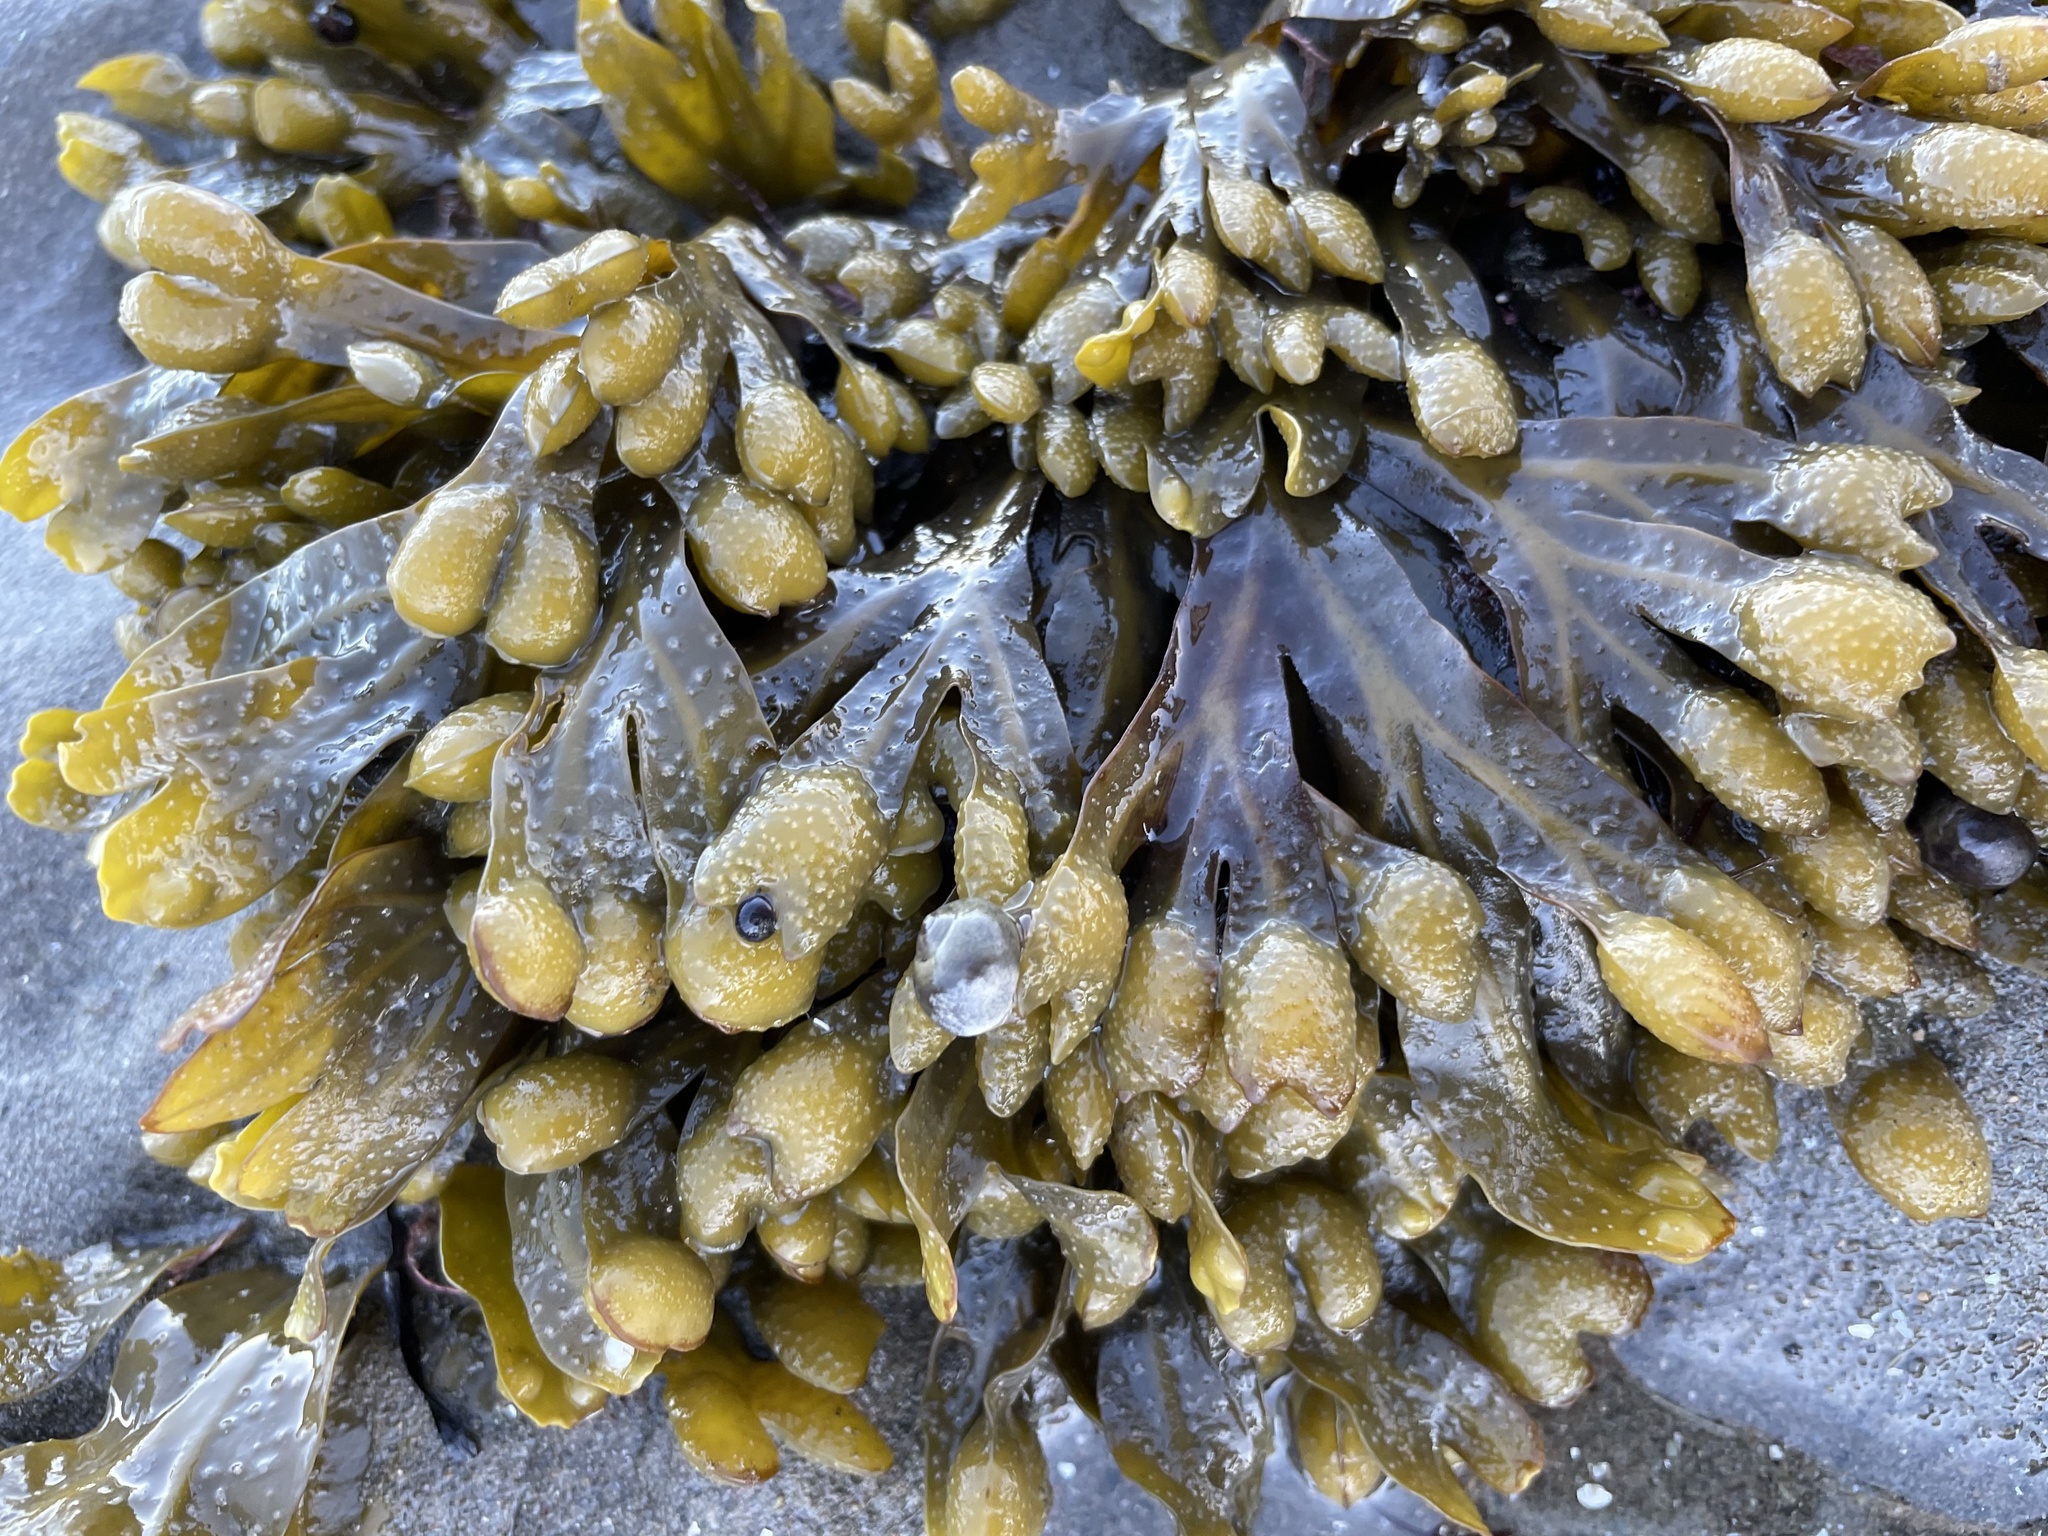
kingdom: Chromista
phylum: Ochrophyta
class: Phaeophyceae
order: Fucales
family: Fucaceae
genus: Fucus
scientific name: Fucus distichus
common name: Rockweed
